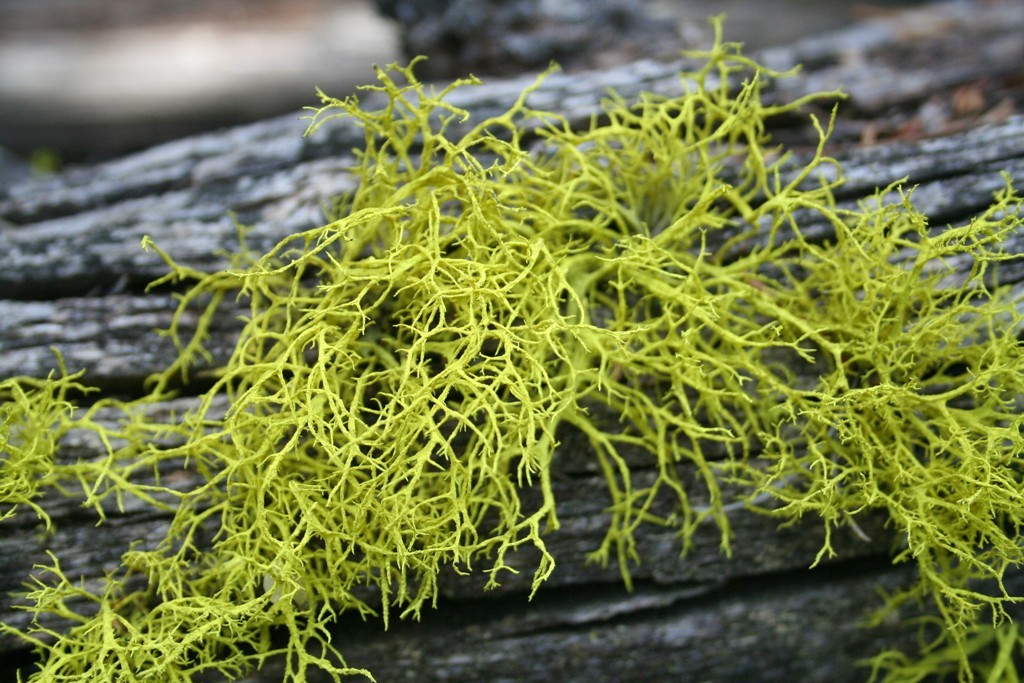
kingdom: Fungi
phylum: Ascomycota
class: Lecanoromycetes
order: Lecanorales
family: Parmeliaceae
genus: Letharia
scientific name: Letharia vulpina
